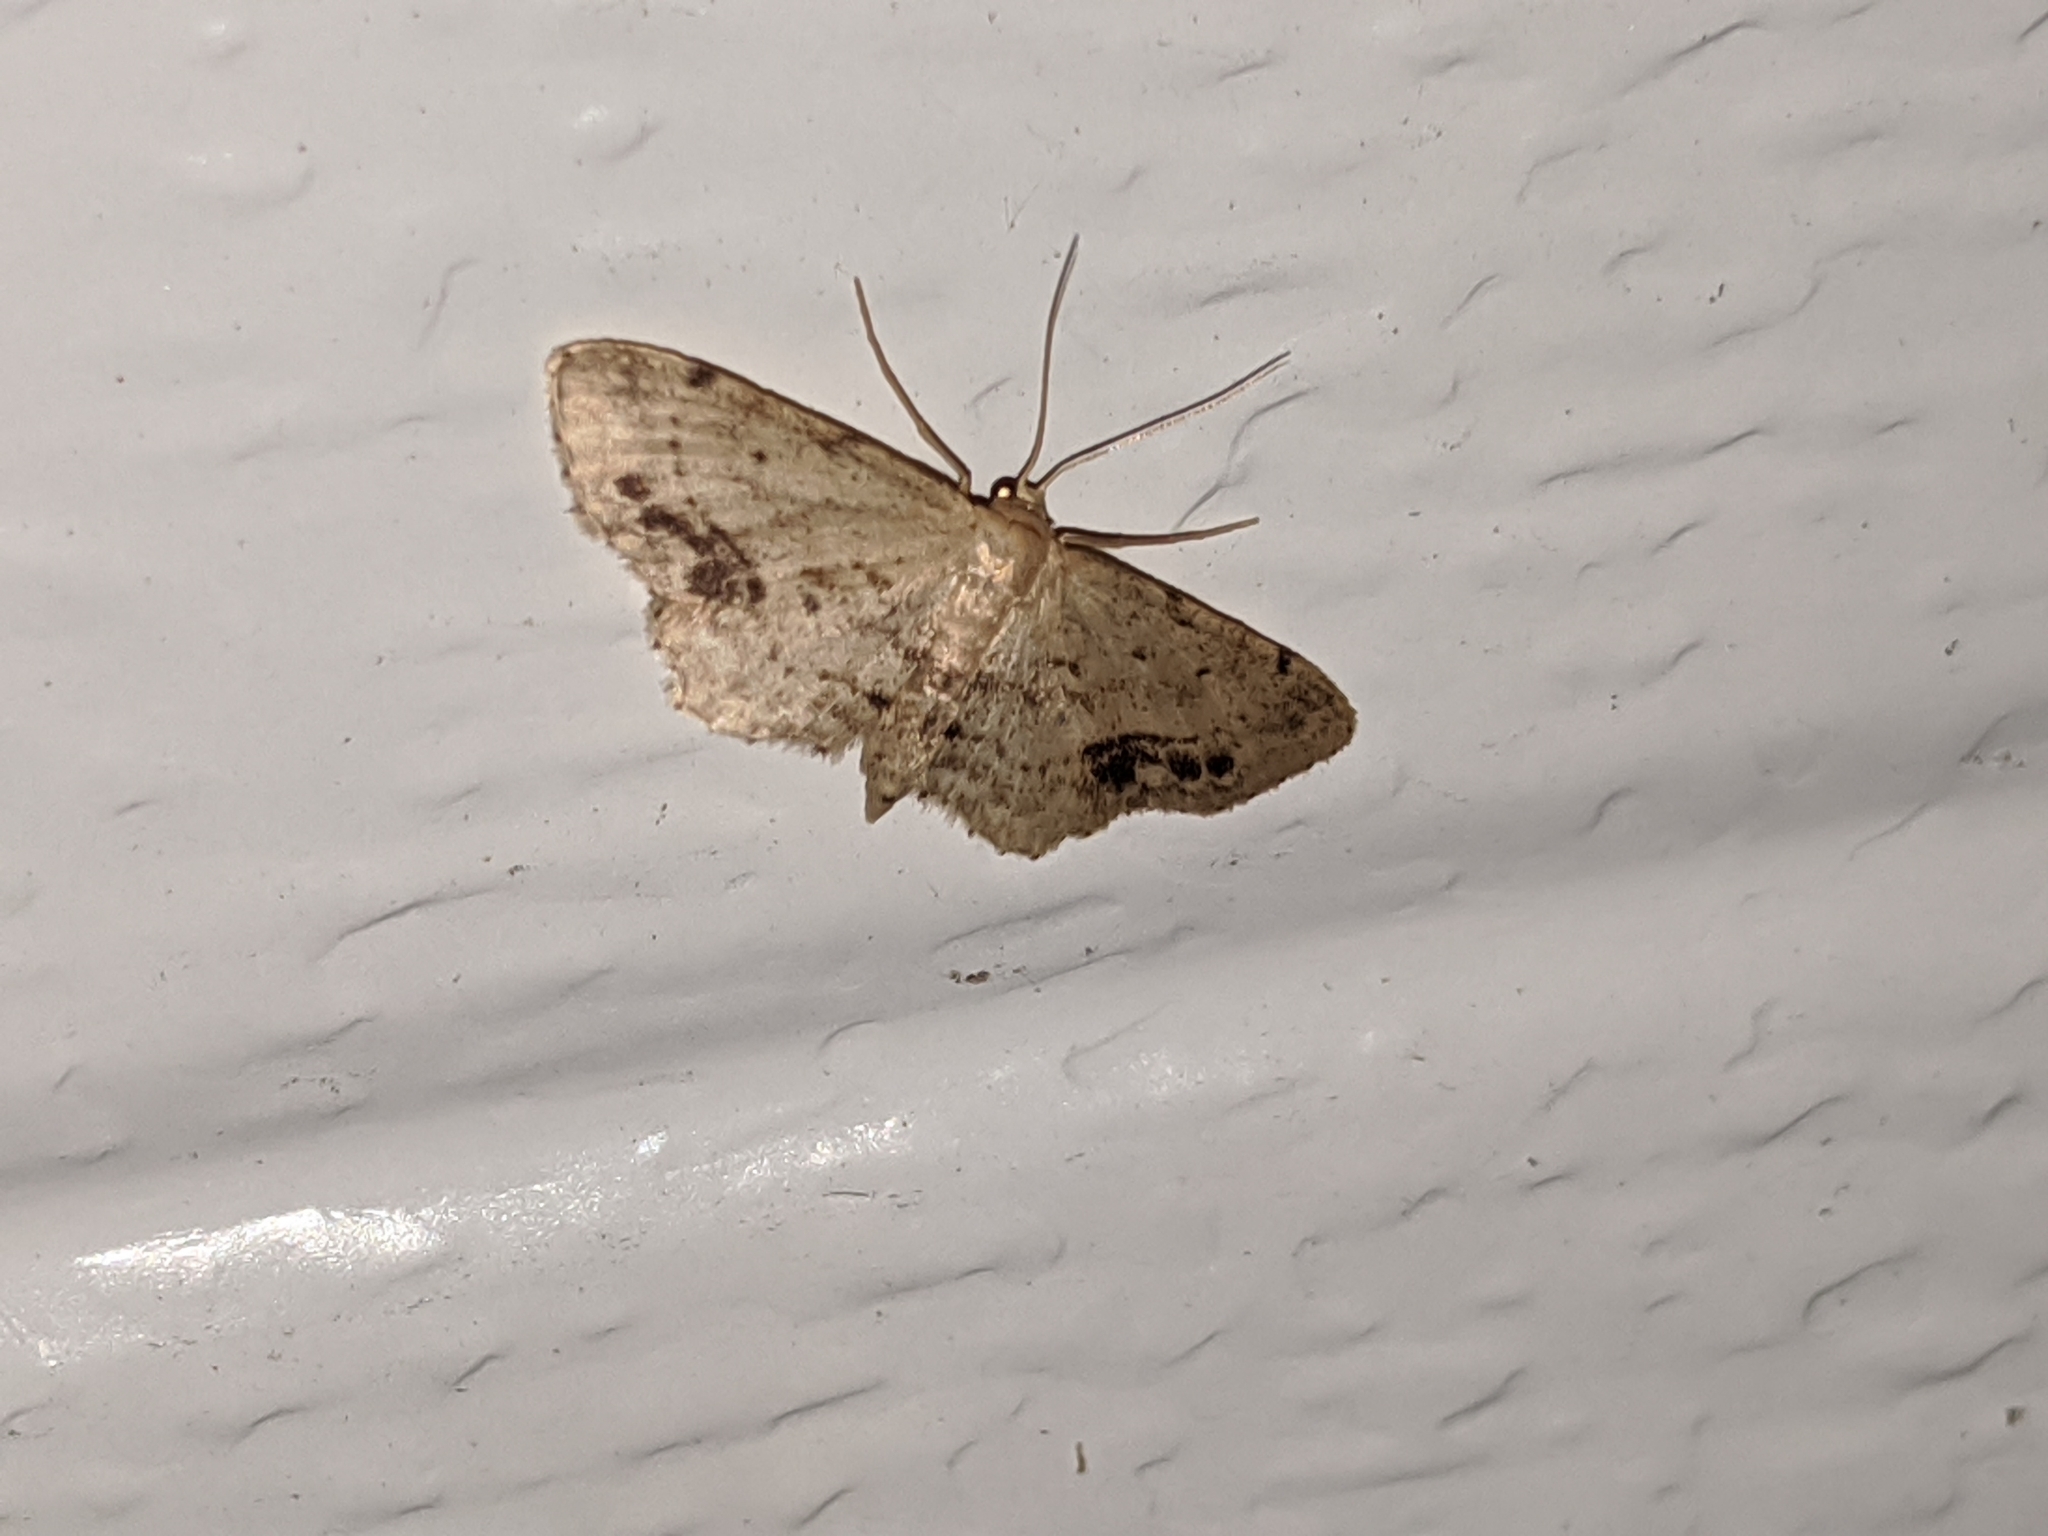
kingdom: Animalia
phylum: Arthropoda
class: Insecta
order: Lepidoptera
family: Geometridae
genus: Idaea
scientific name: Idaea dimidiata
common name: Single-dotted wave
